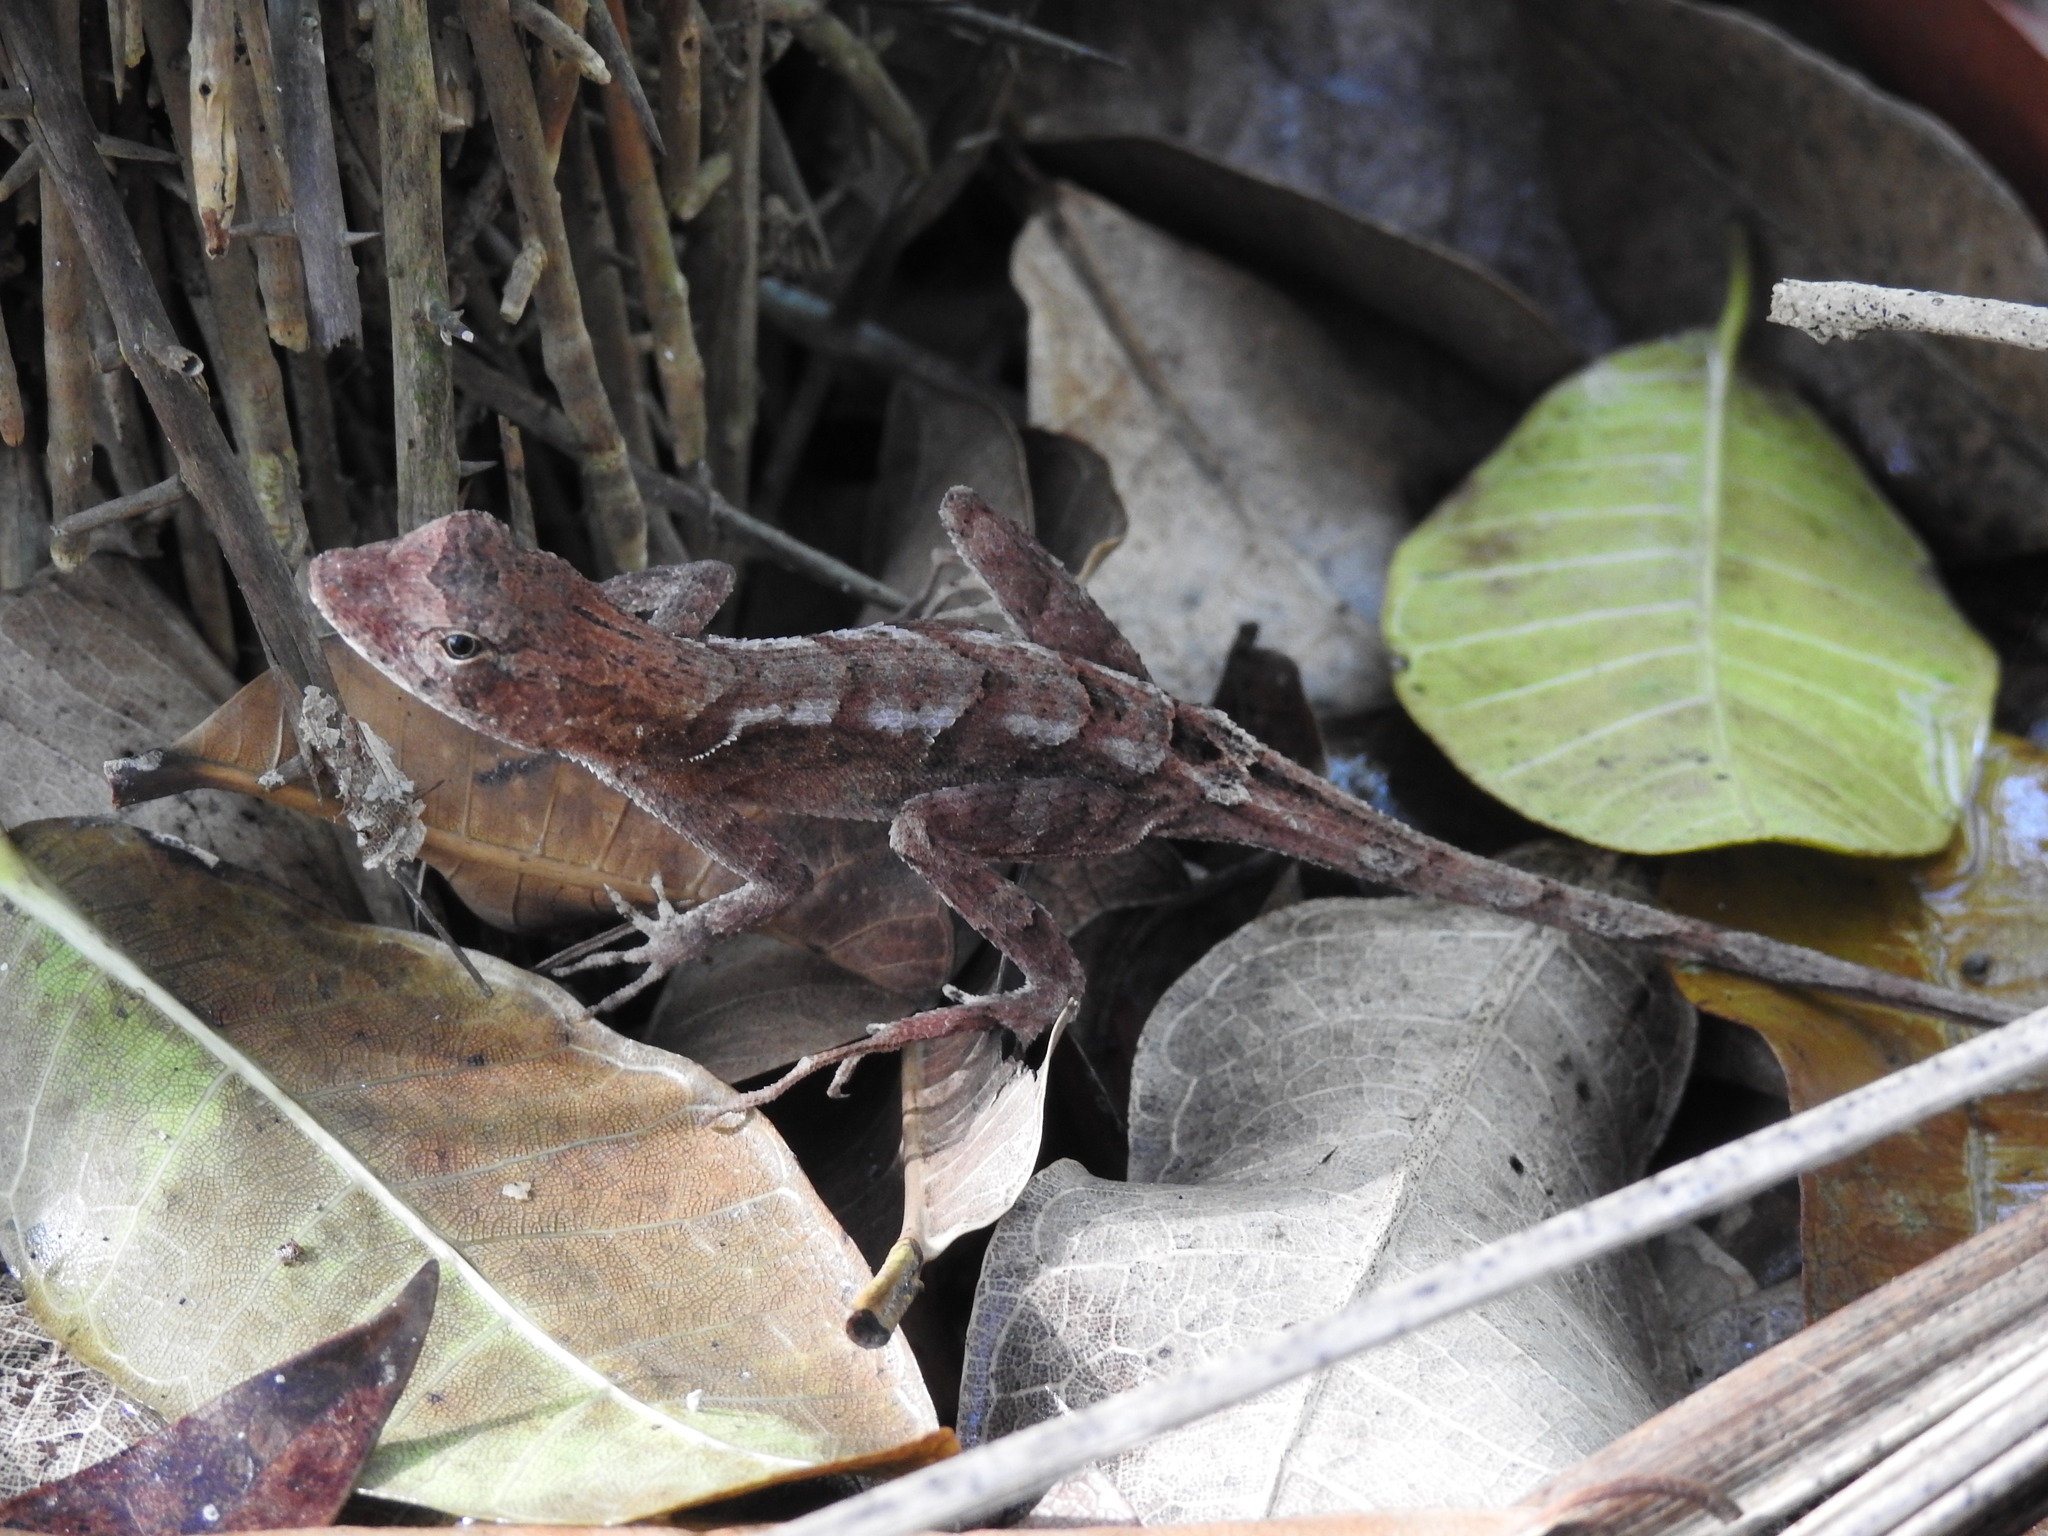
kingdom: Animalia
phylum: Chordata
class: Squamata
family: Dactyloidae
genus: Anolis
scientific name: Anolis tropidonotus
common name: Greater scaly anole
